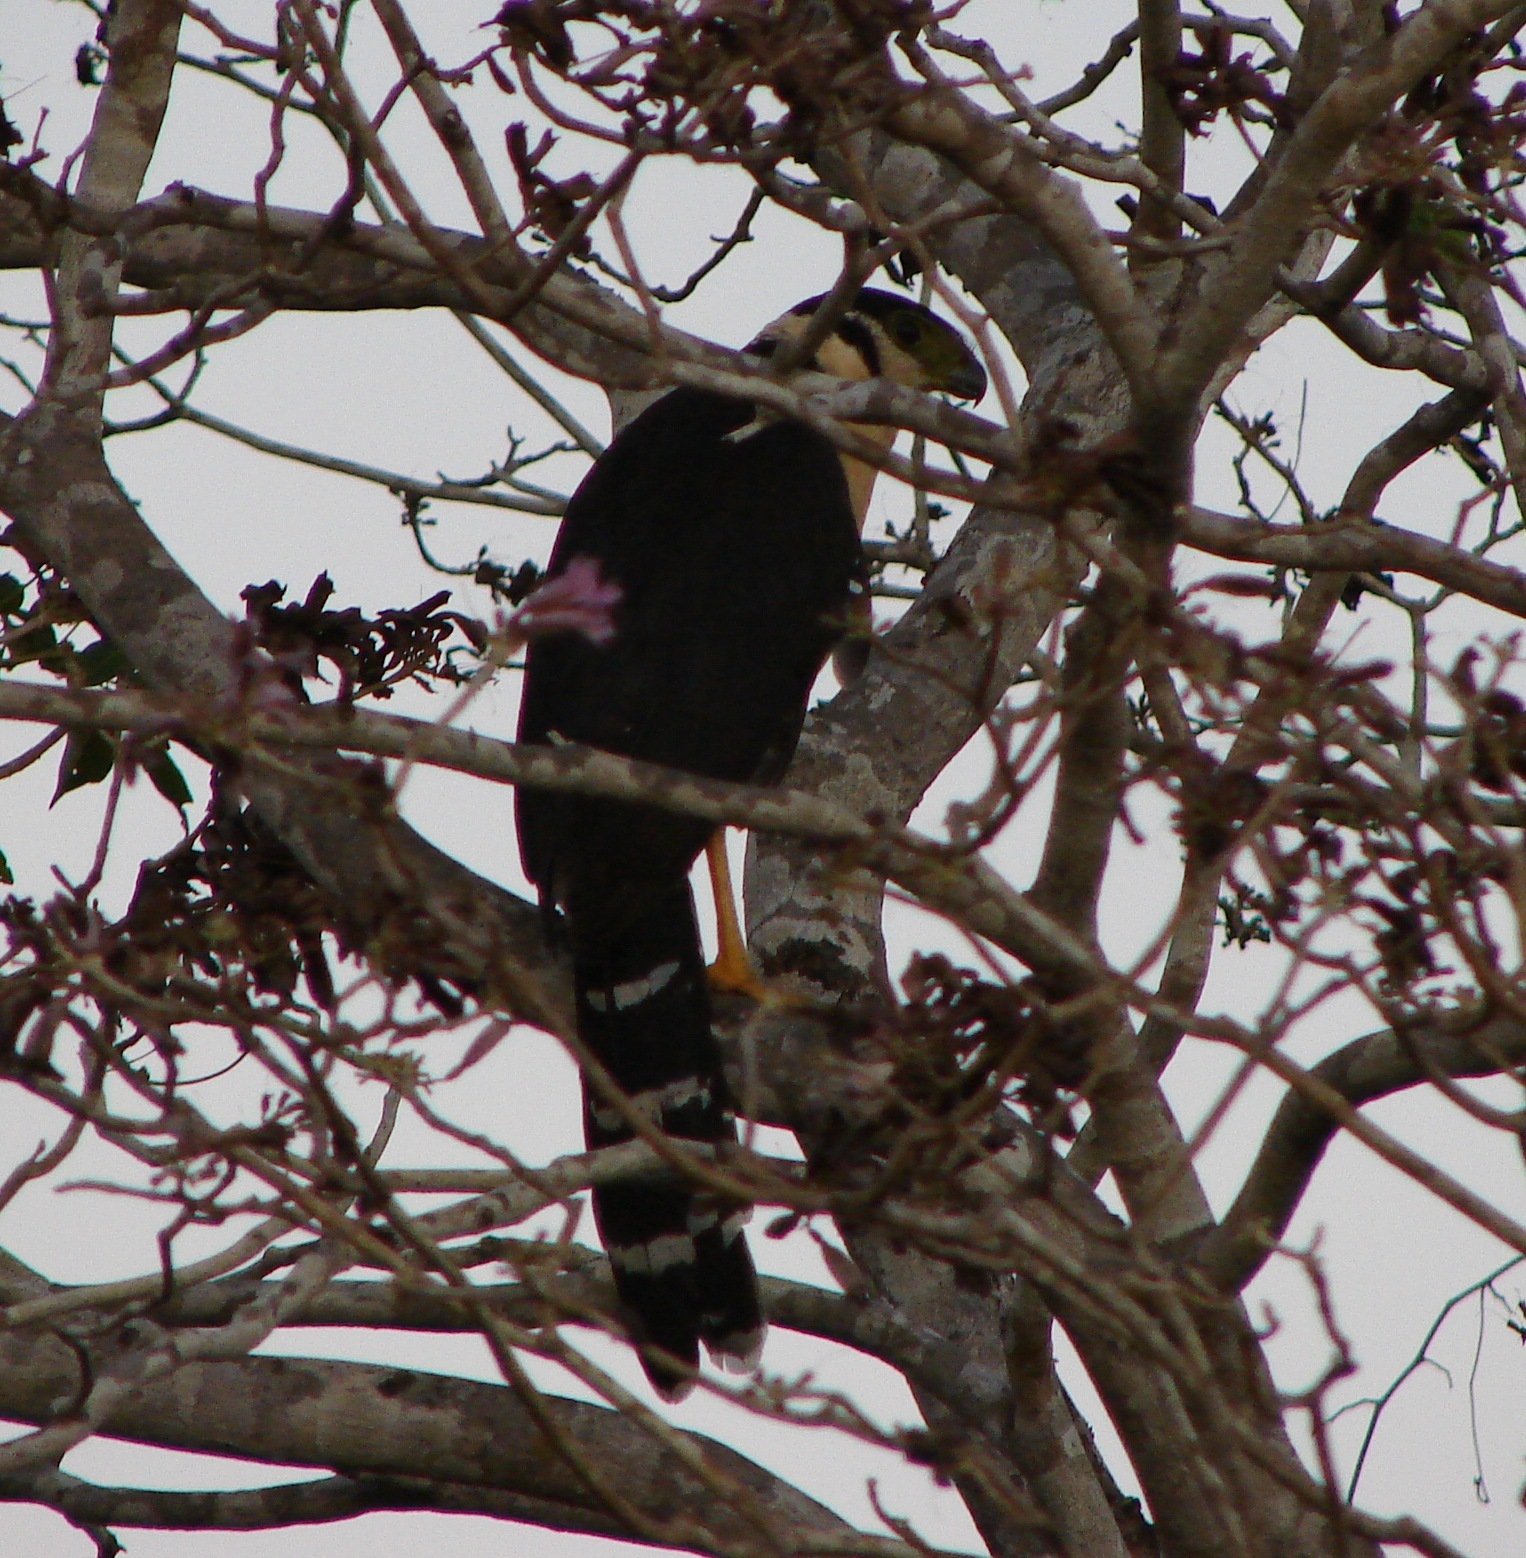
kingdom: Animalia
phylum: Chordata
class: Aves
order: Falconiformes
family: Falconidae
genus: Micrastur
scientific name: Micrastur semitorquatus
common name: Collared forest-falcon
